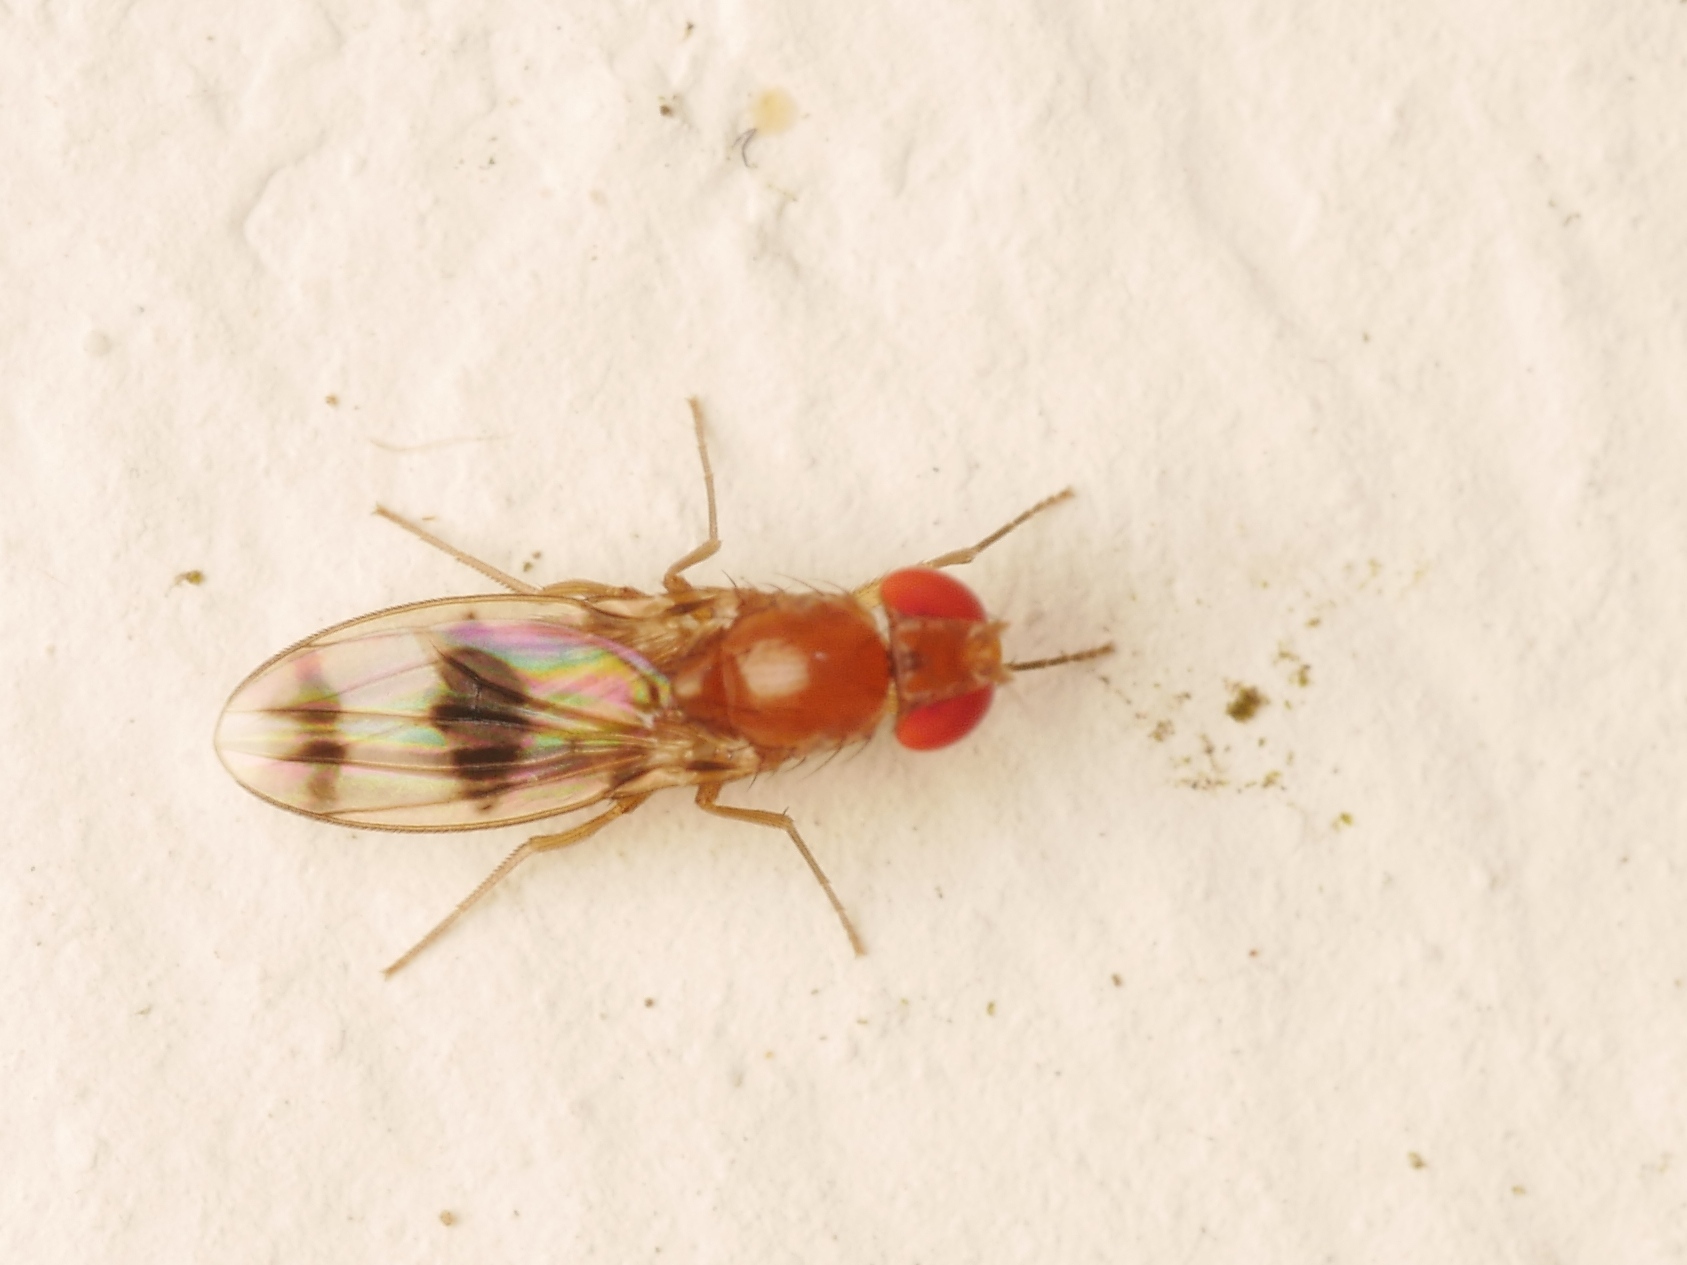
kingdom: Animalia
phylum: Arthropoda
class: Insecta
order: Diptera
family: Drosophilidae
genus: Chymomyza
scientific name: Chymomyza amoena
